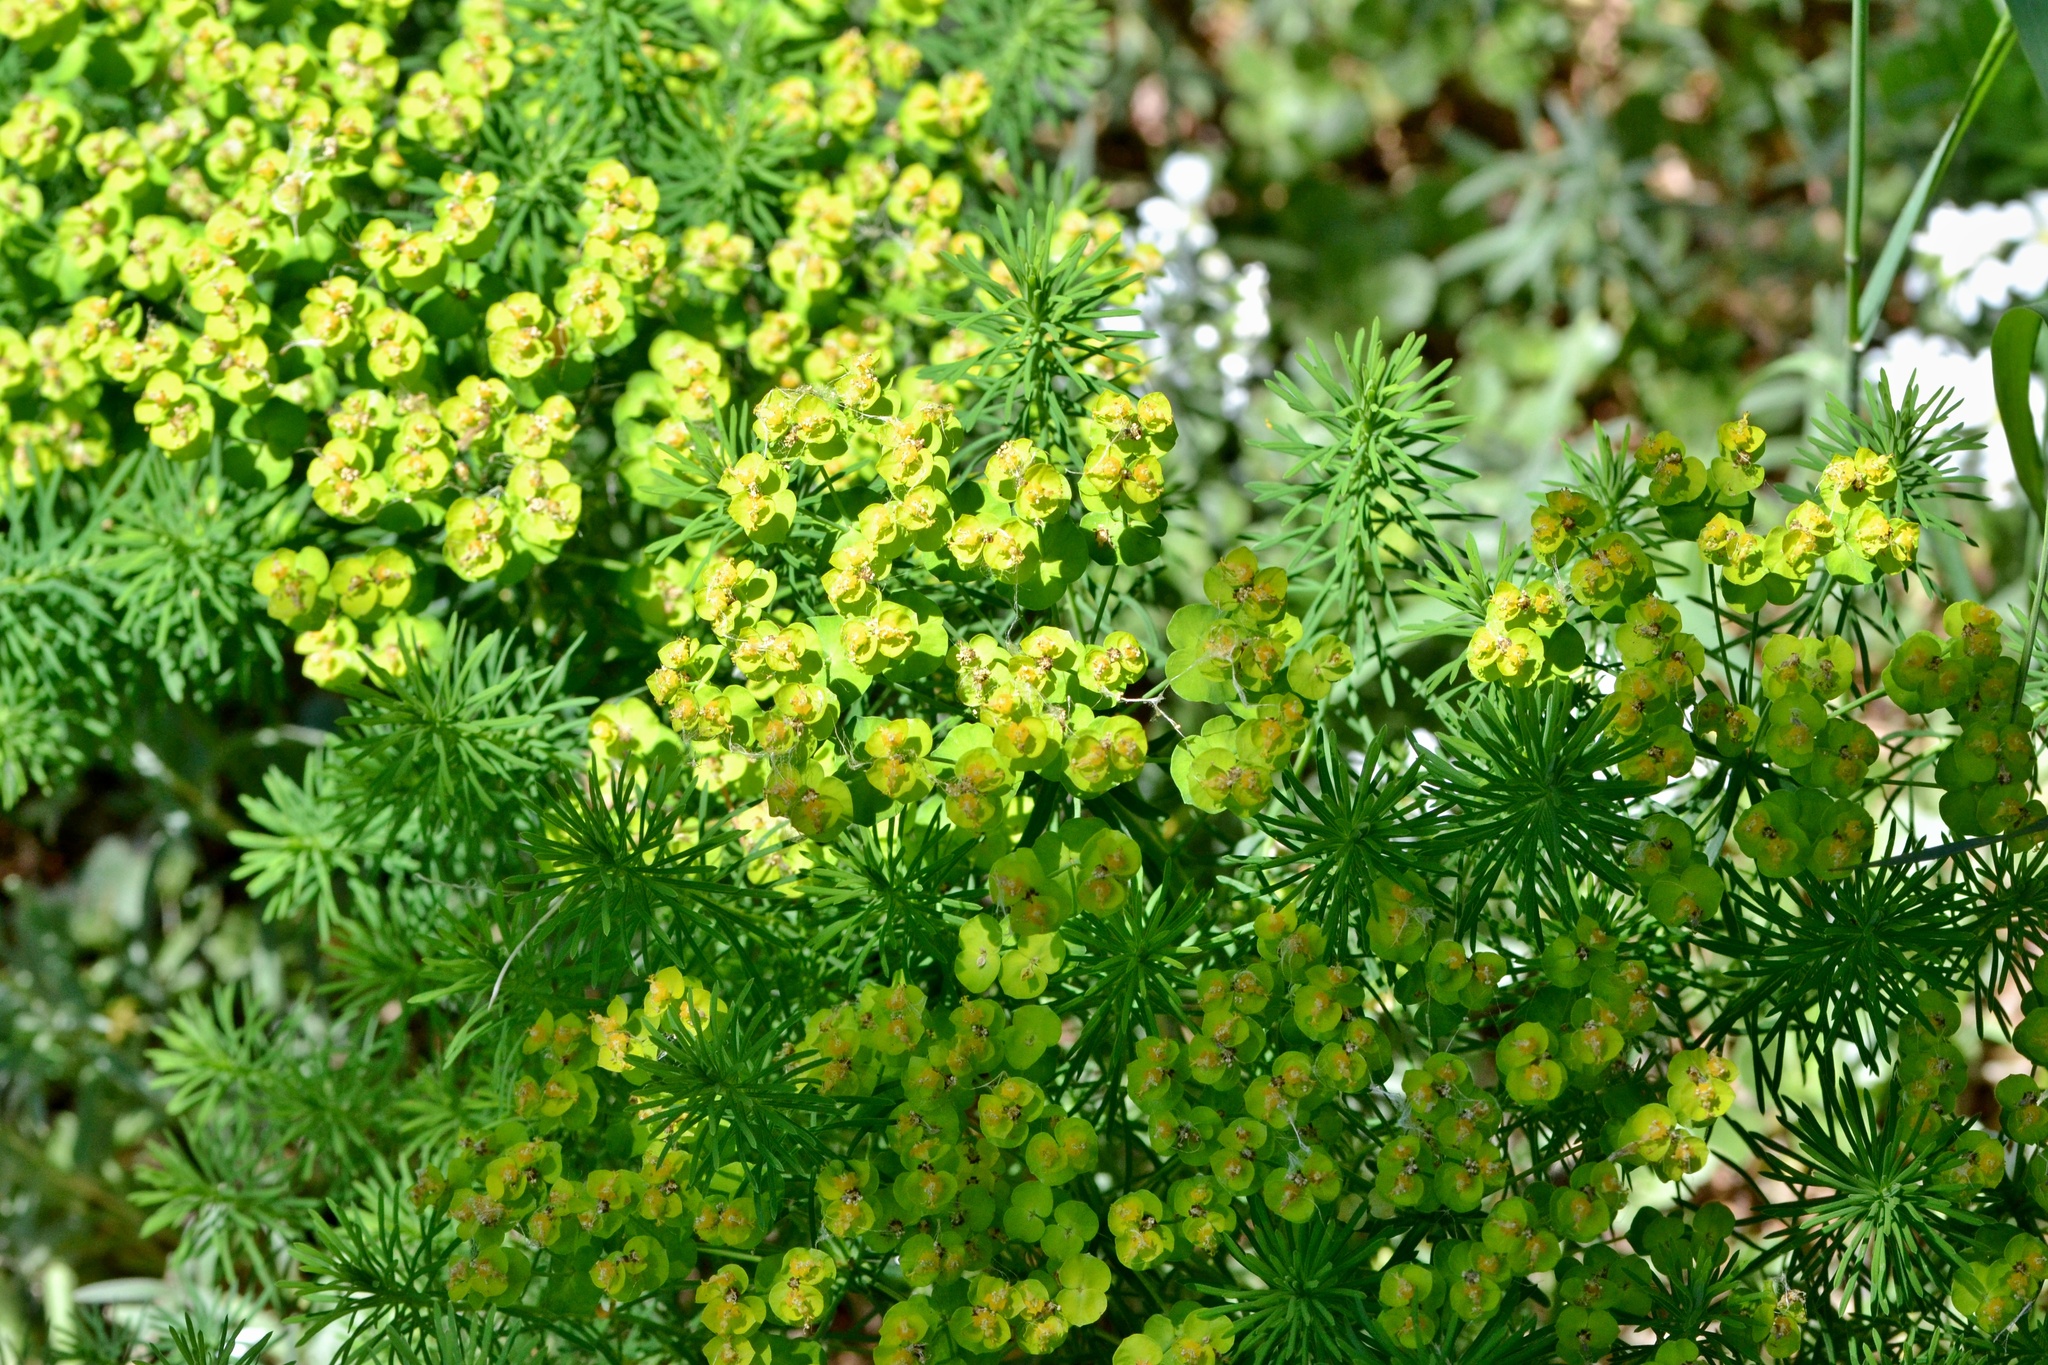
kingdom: Plantae
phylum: Tracheophyta
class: Magnoliopsida
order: Malpighiales
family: Euphorbiaceae
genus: Euphorbia
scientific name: Euphorbia cyparissias
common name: Cypress spurge
